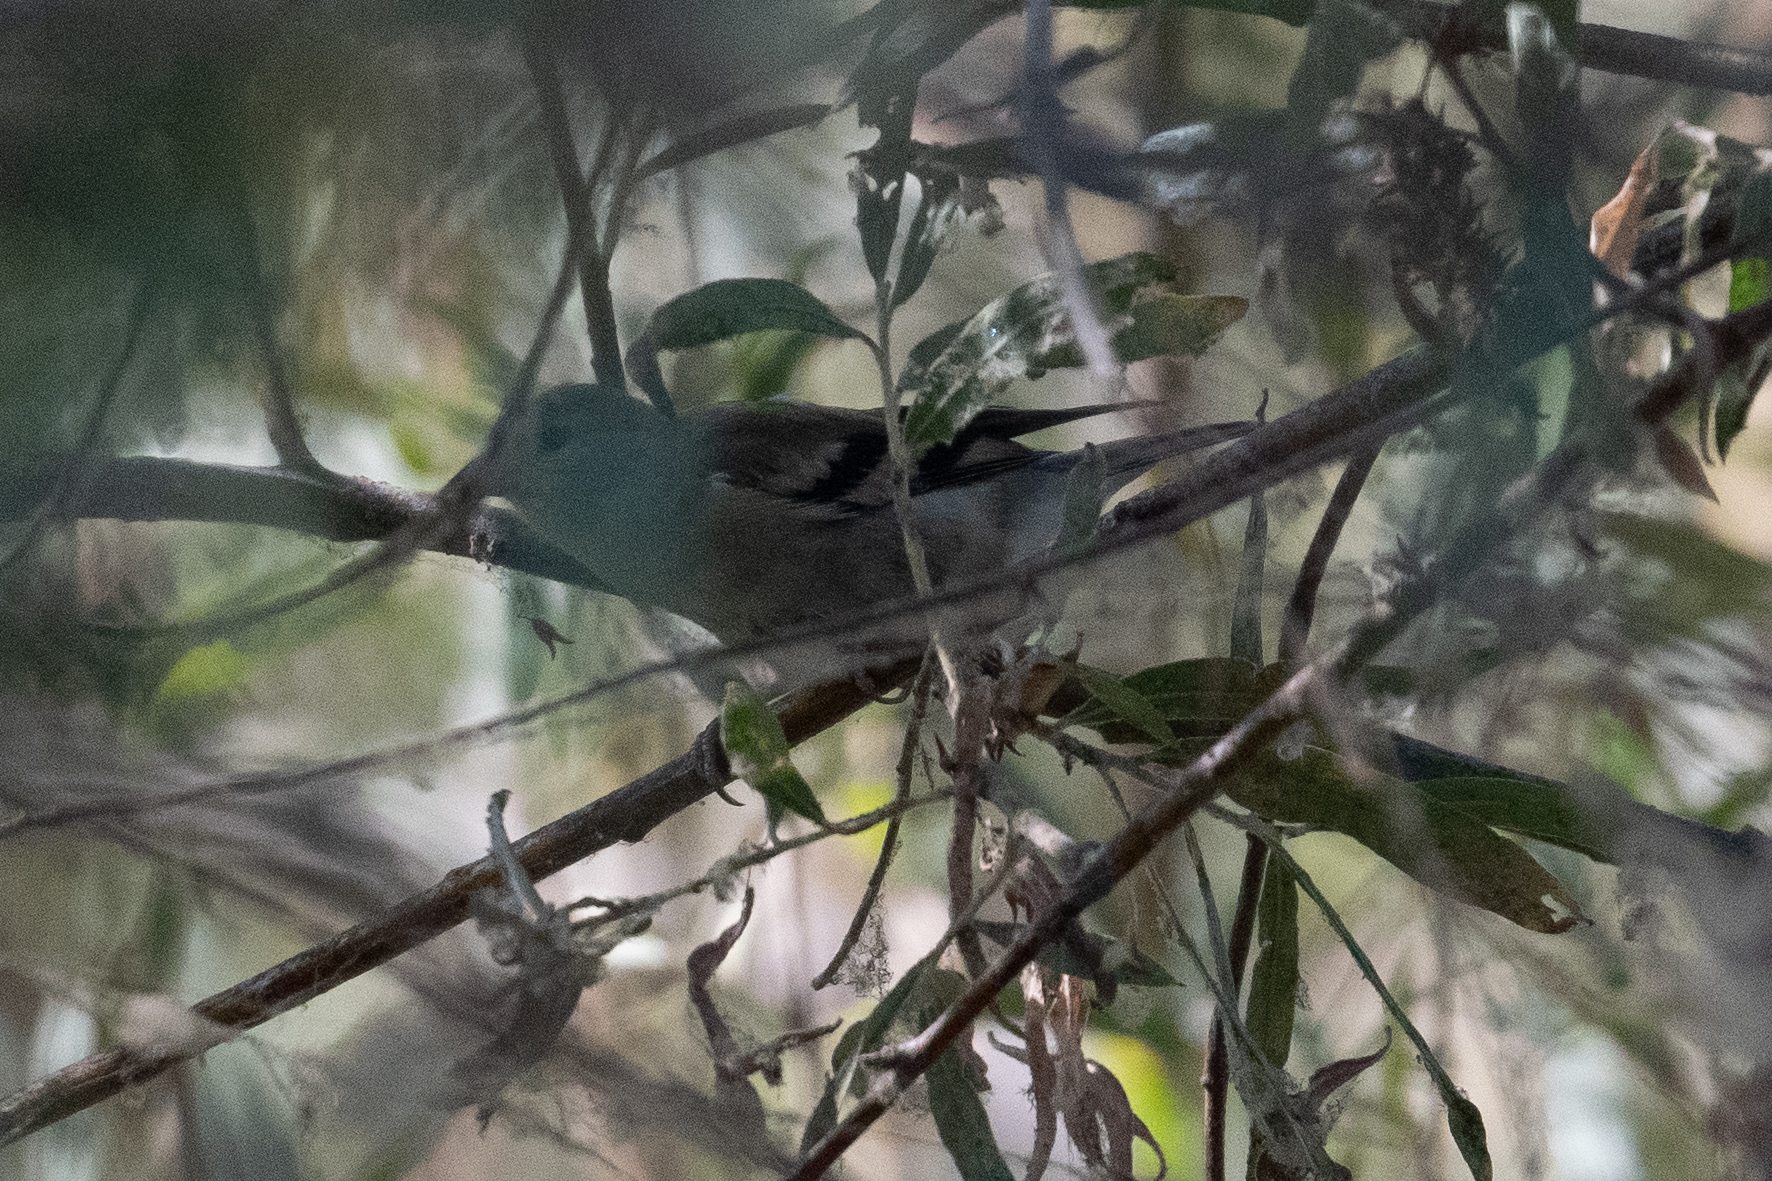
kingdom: Animalia
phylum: Chordata
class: Aves
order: Passeriformes
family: Passerellidae
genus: Zonotrichia
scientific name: Zonotrichia leucophrys
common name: White-crowned sparrow
